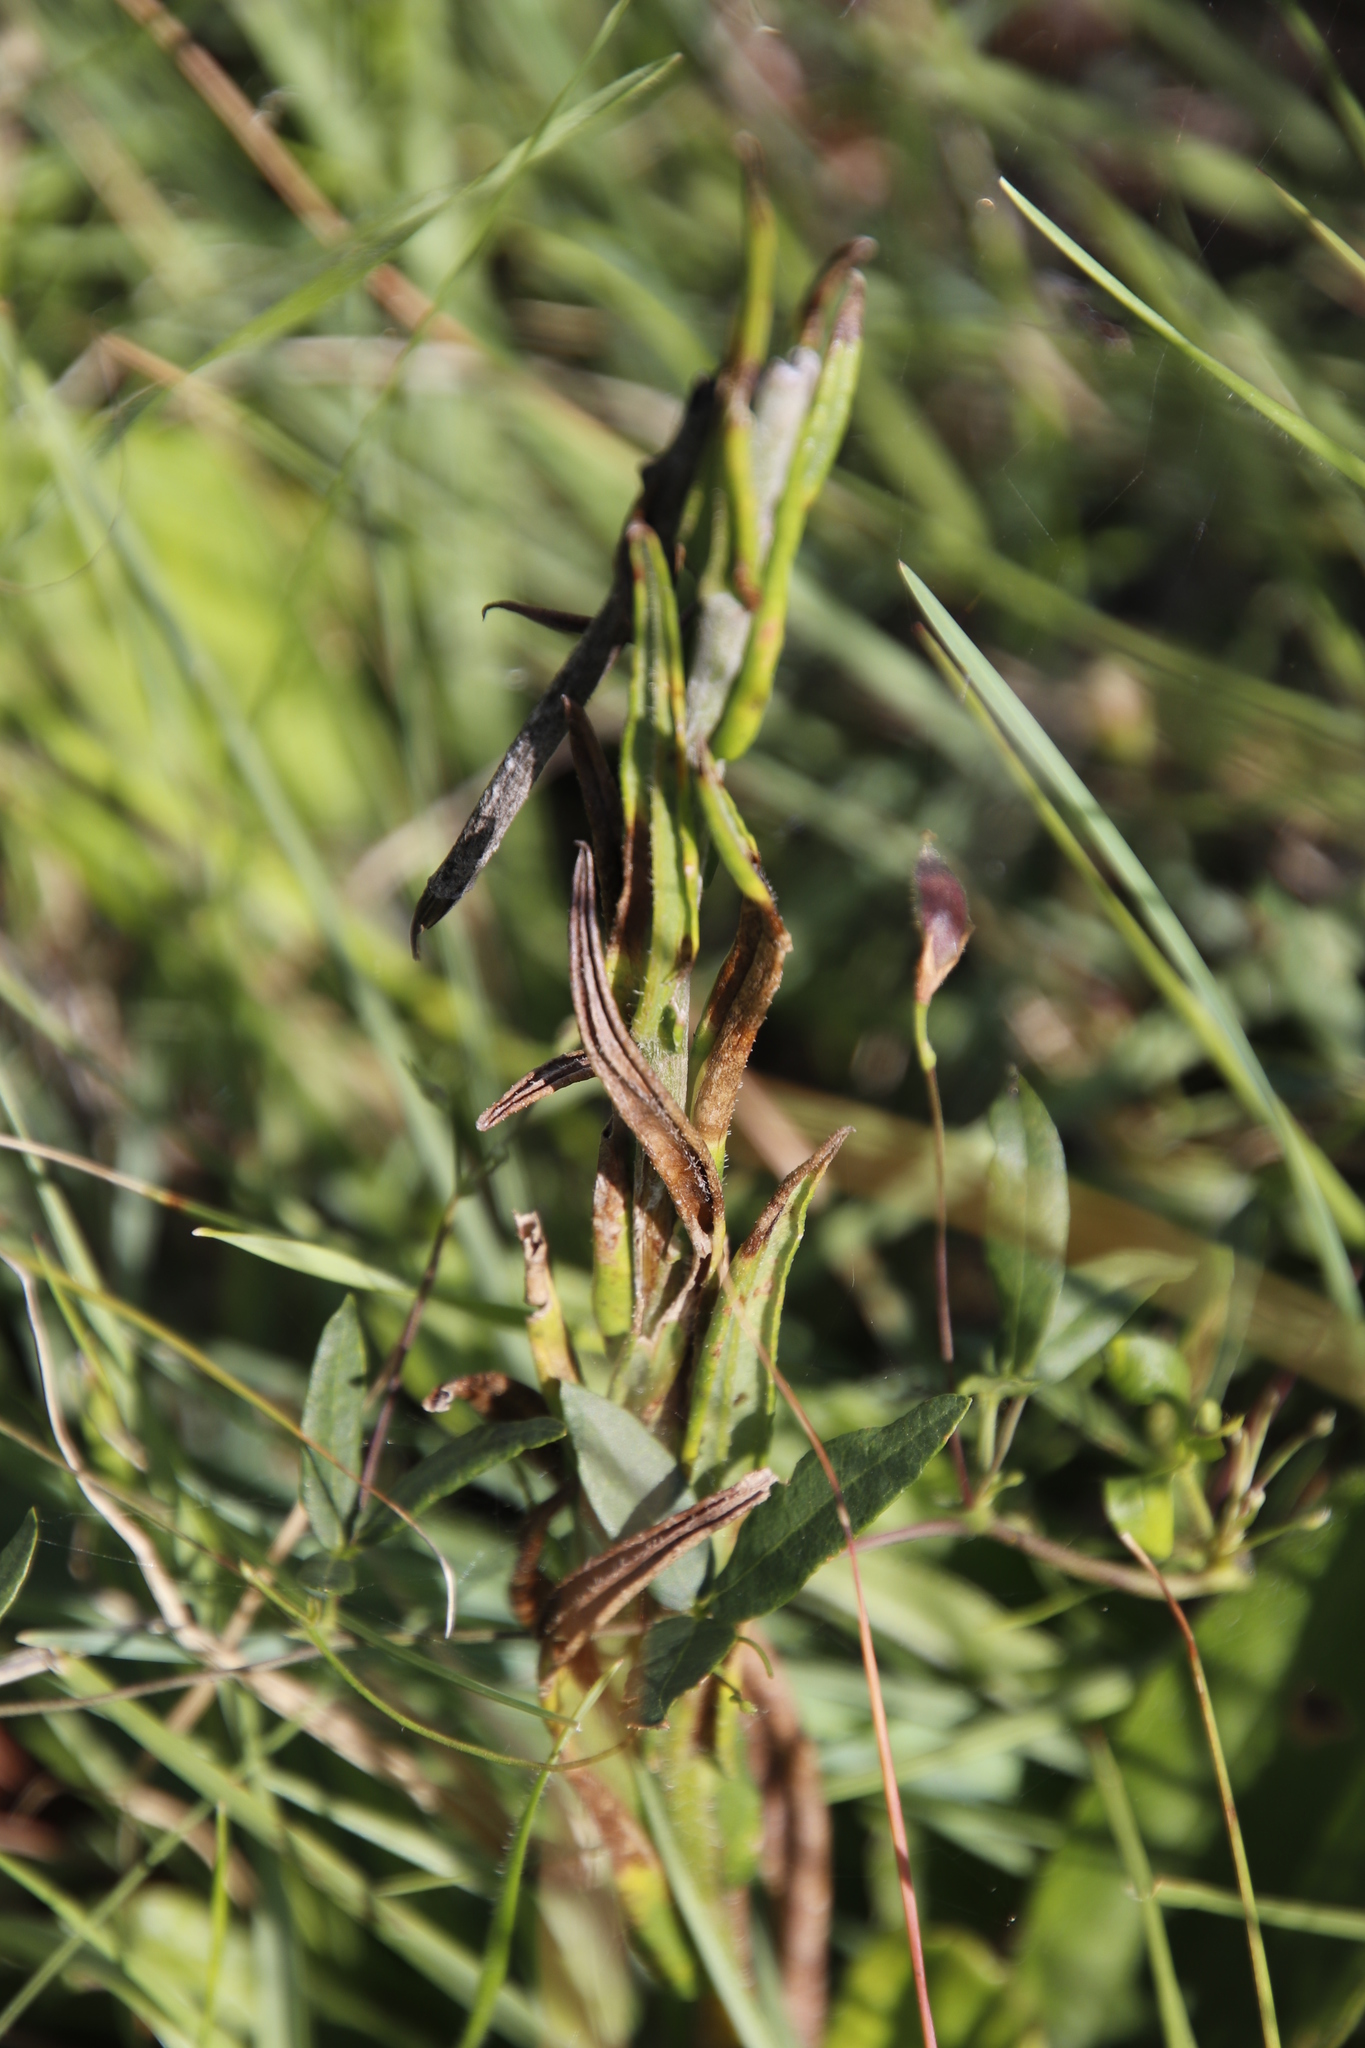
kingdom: Plantae
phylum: Tracheophyta
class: Magnoliopsida
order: Gentianales
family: Apocynaceae
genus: Asclepias
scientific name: Asclepias humilis
